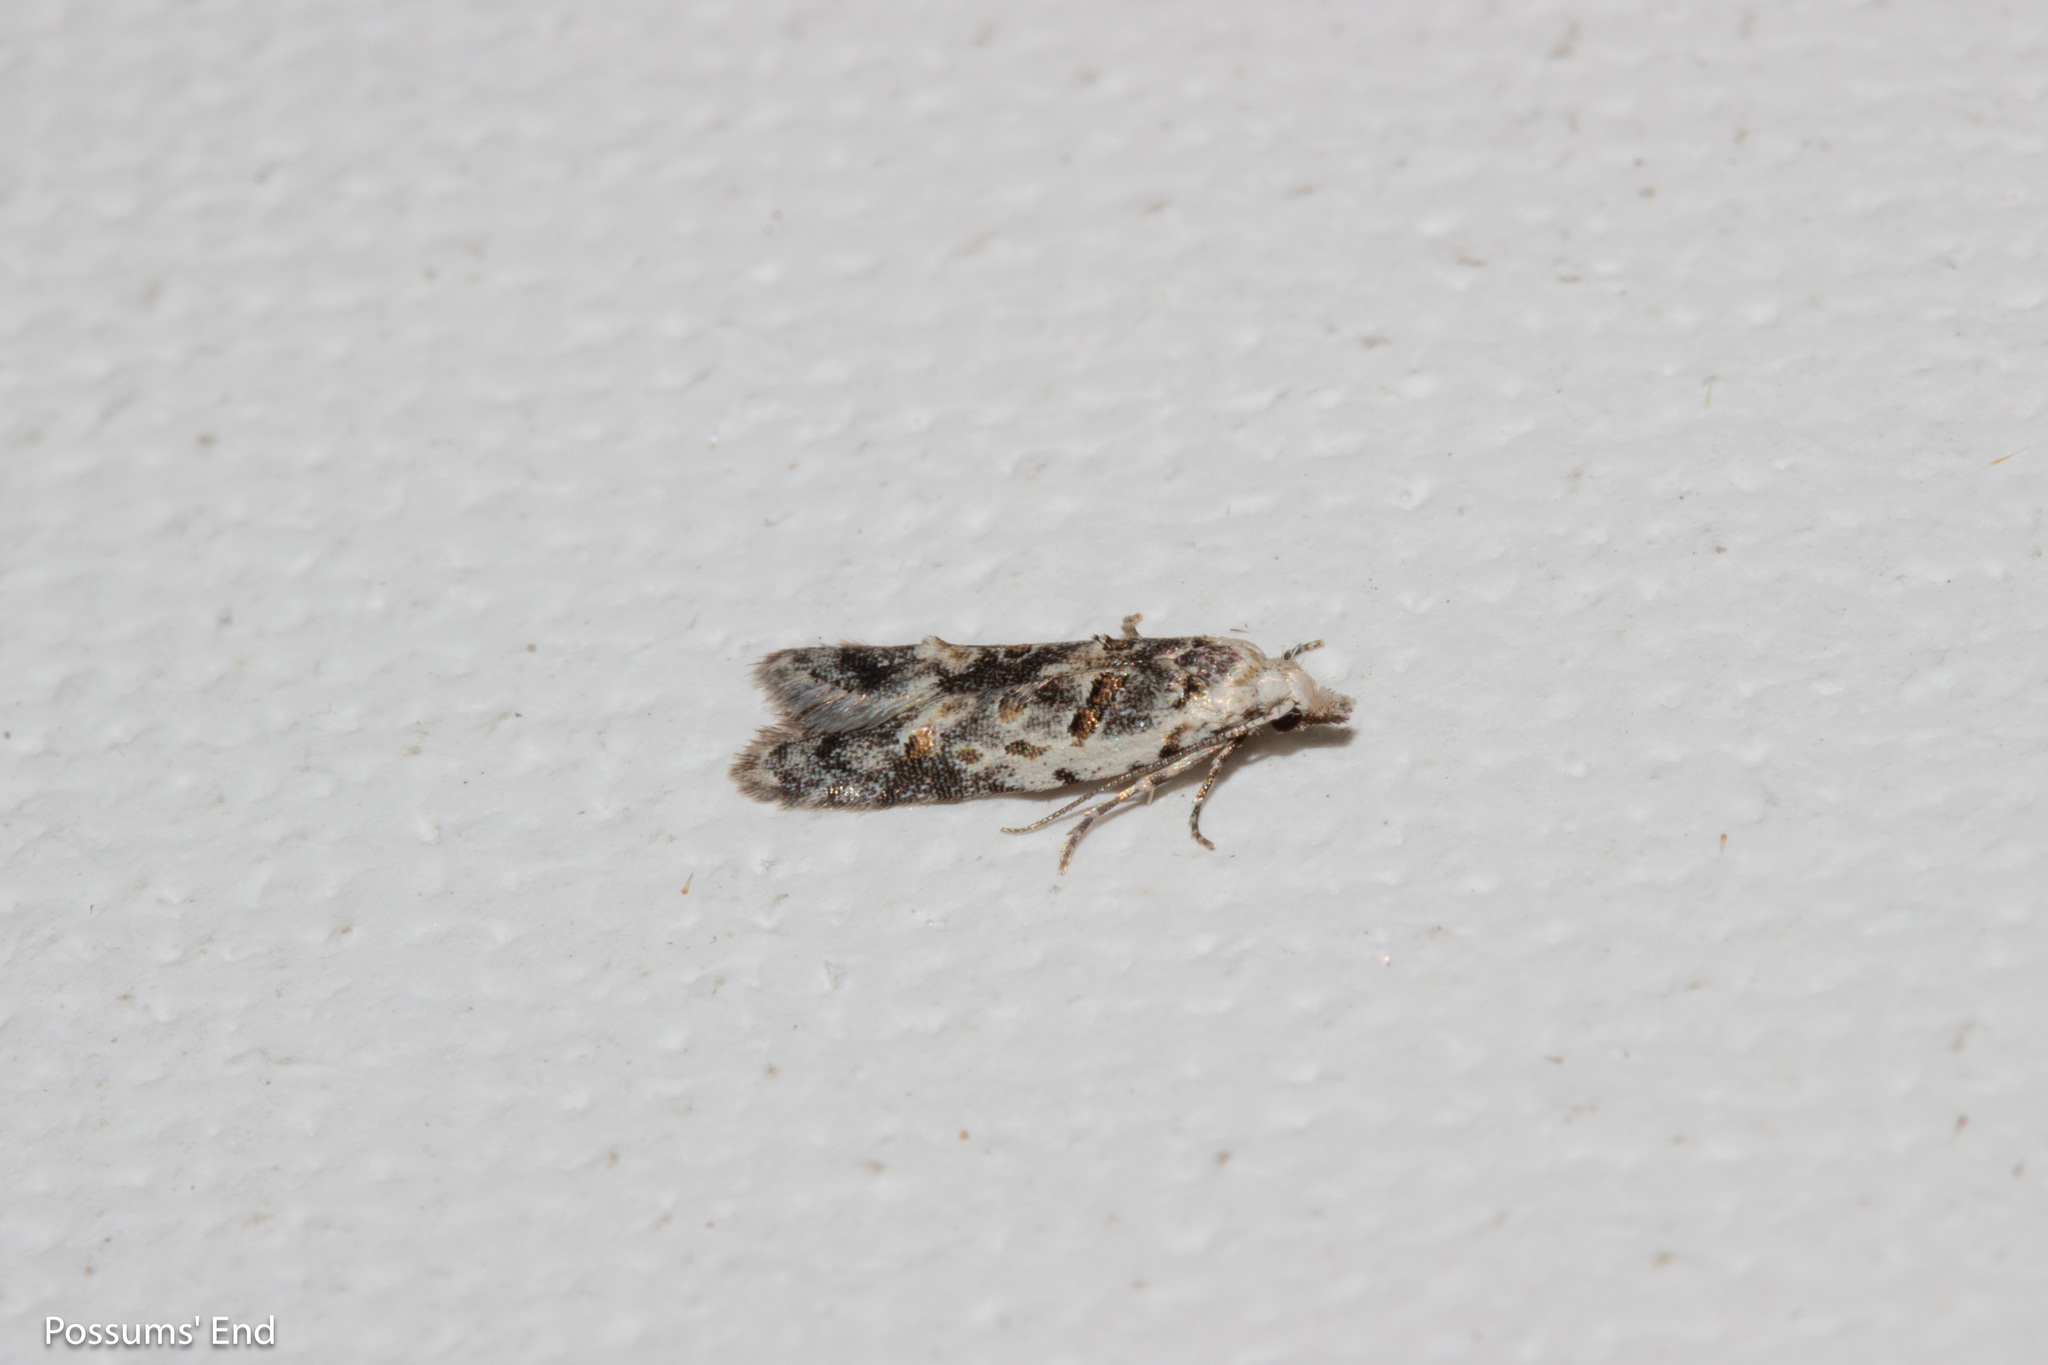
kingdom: Animalia
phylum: Arthropoda
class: Insecta
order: Lepidoptera
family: Carposinidae
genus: Carposina
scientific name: Carposina
